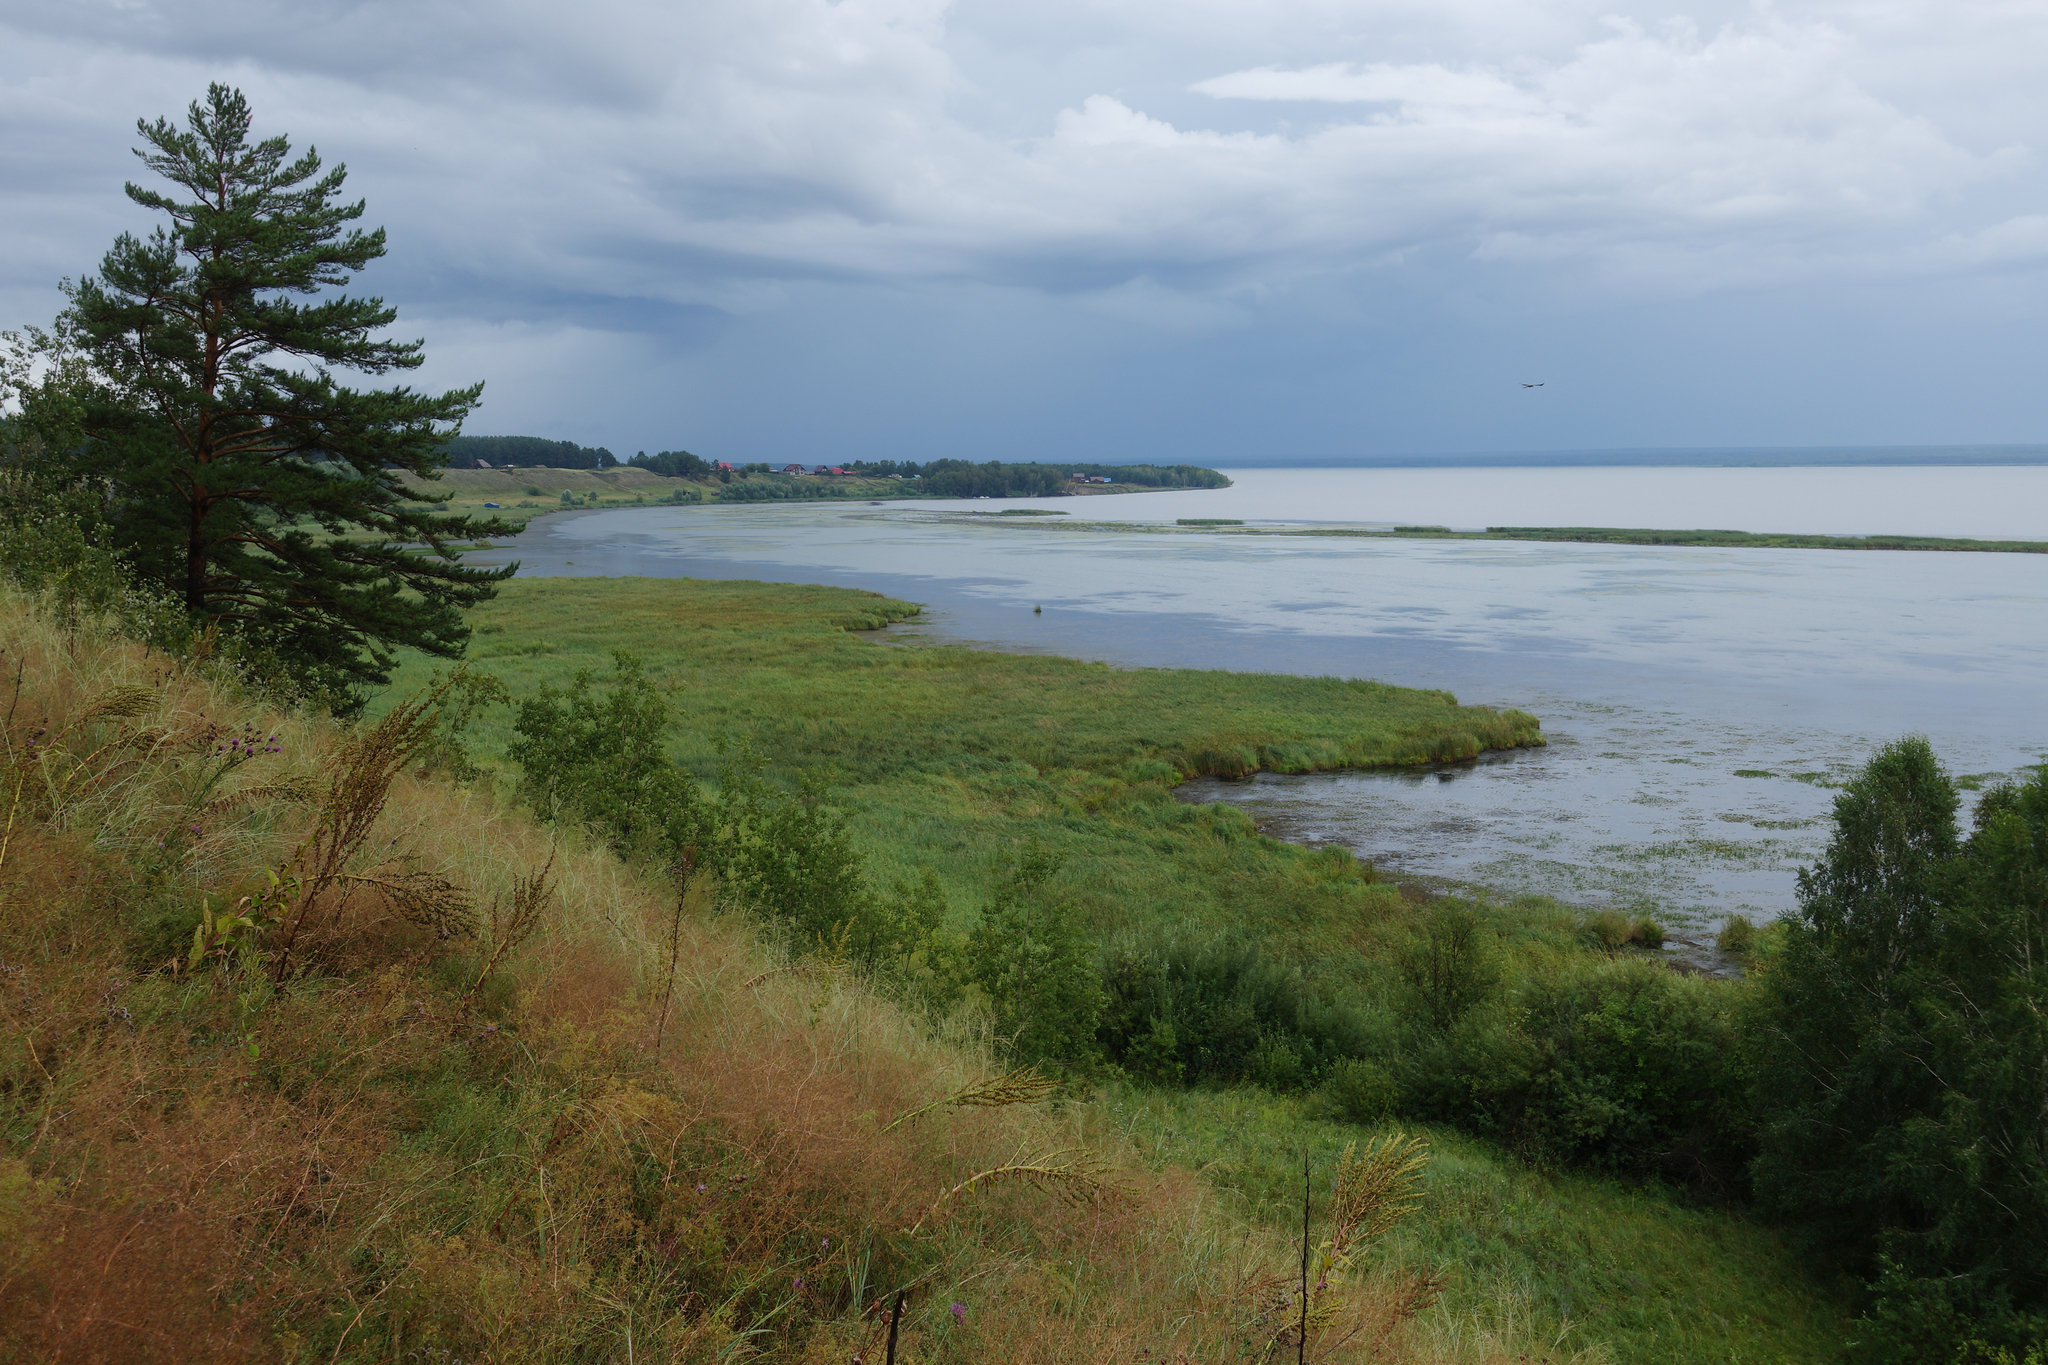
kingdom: Plantae
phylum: Tracheophyta
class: Pinopsida
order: Pinales
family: Pinaceae
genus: Pinus
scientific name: Pinus sylvestris
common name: Scots pine
